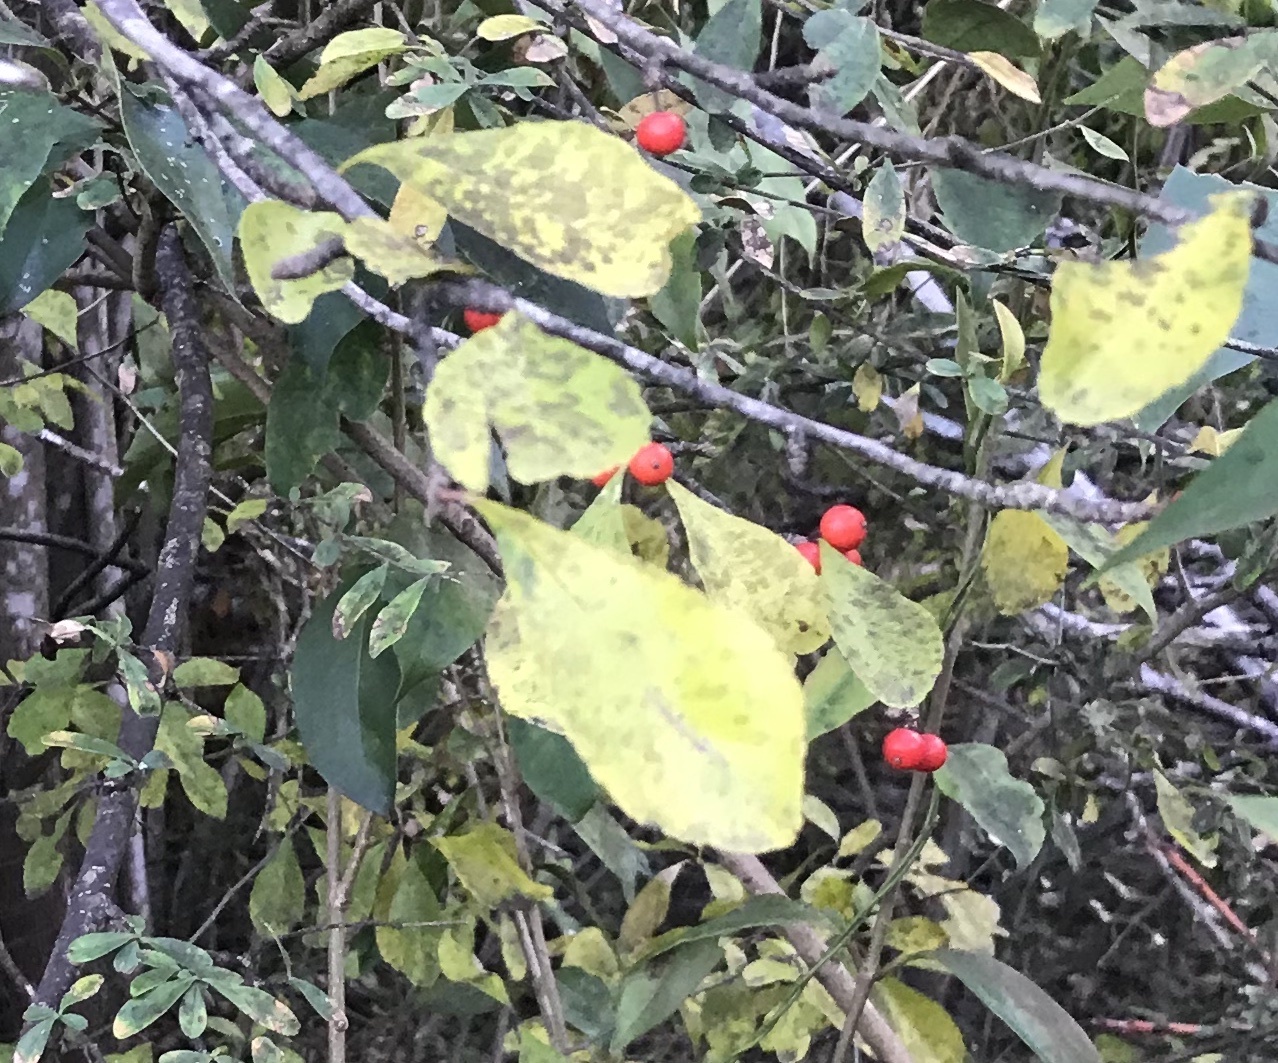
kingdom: Plantae
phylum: Tracheophyta
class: Magnoliopsida
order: Aquifoliales
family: Aquifoliaceae
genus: Ilex
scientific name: Ilex decidua
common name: Possum-haw
